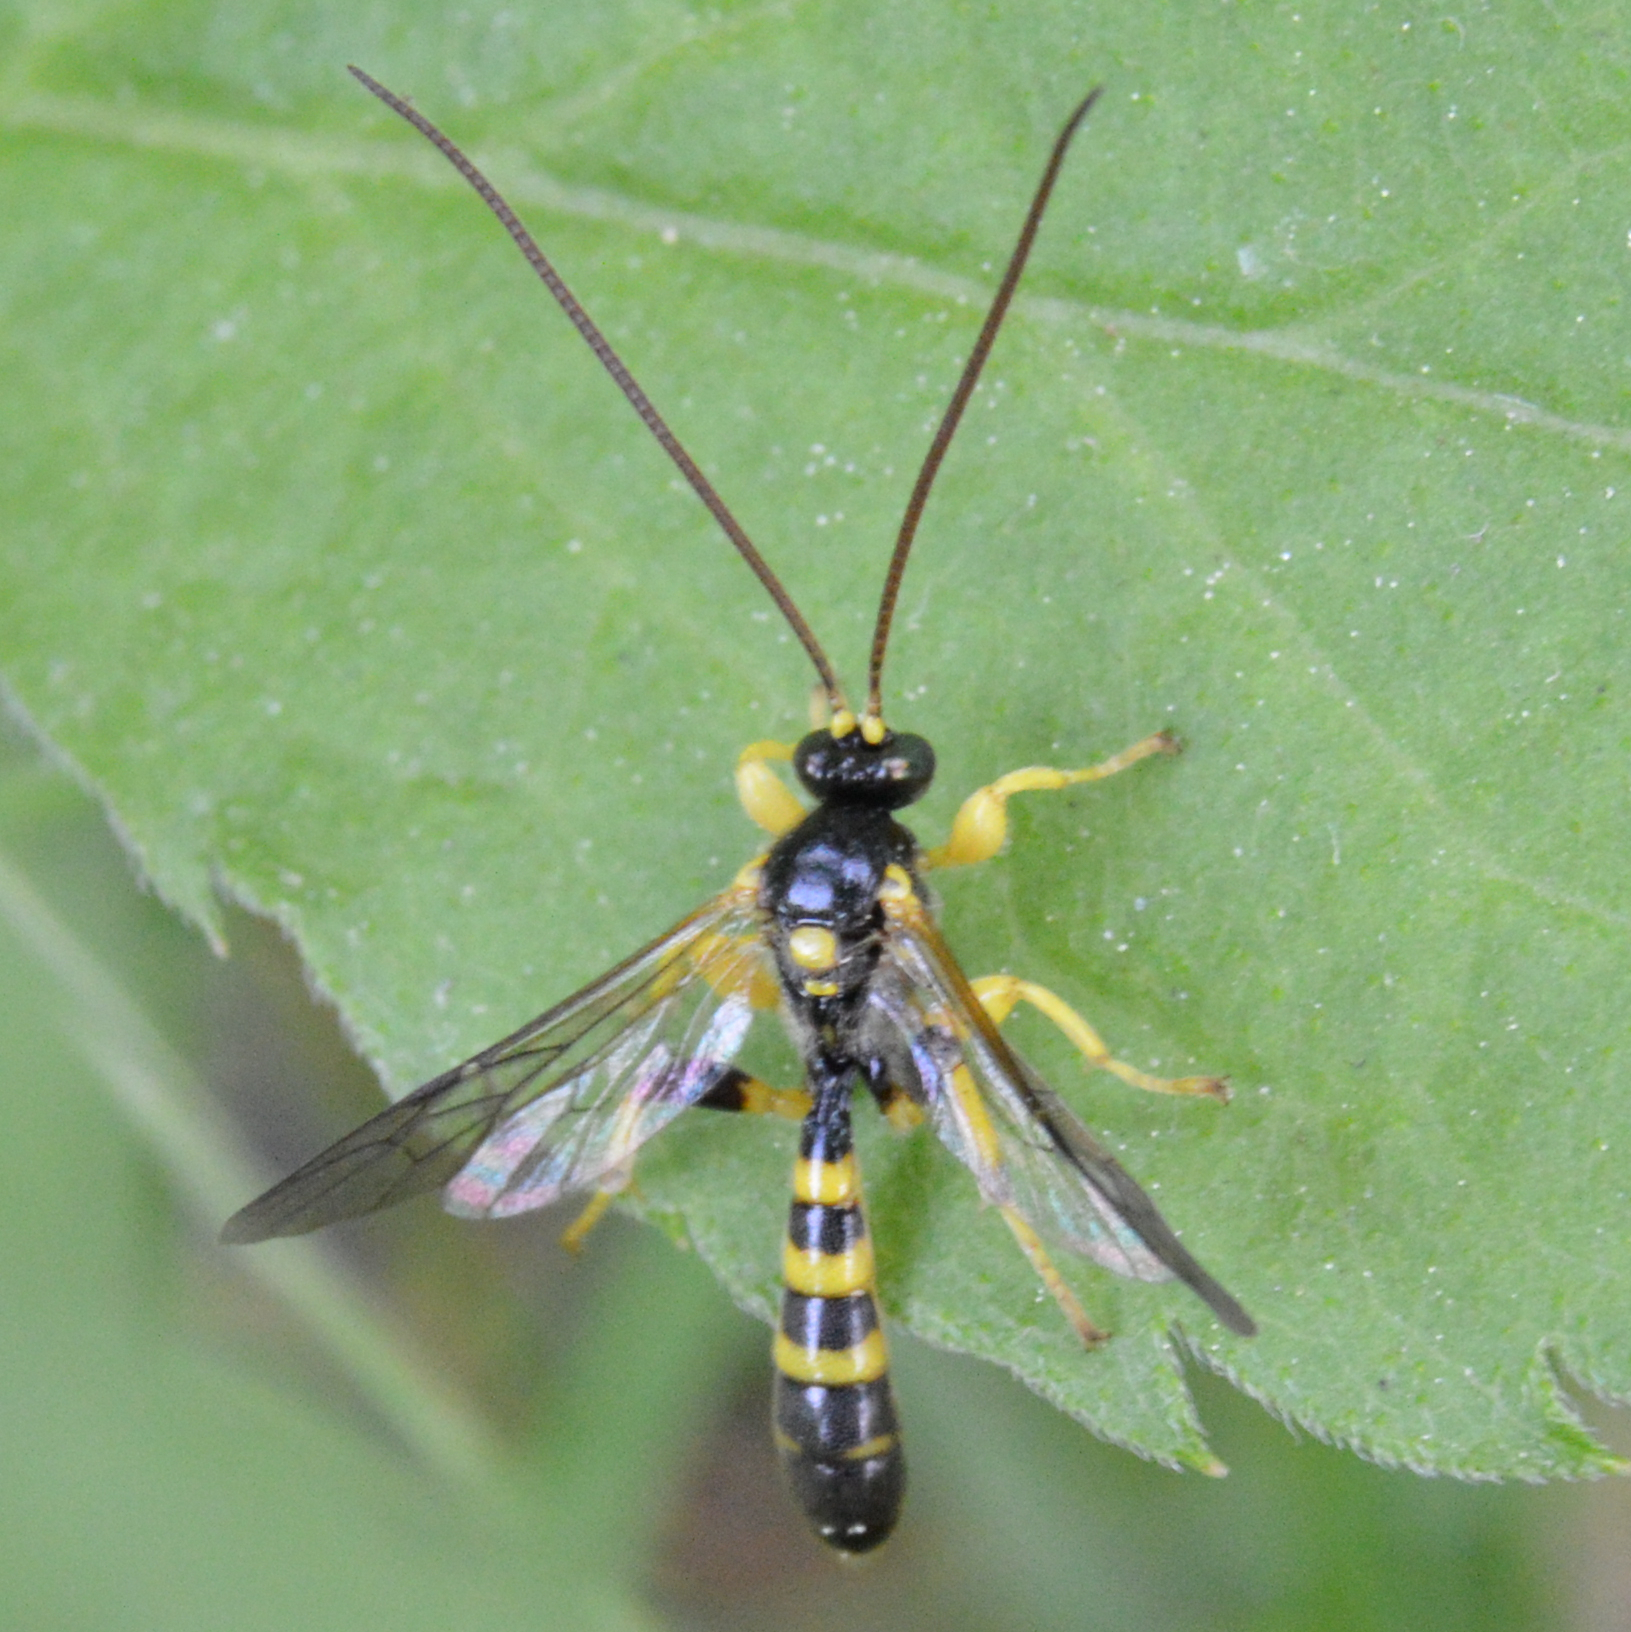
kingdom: Animalia
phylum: Arthropoda
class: Insecta
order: Hymenoptera
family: Ichneumonidae
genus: Colpotrochia
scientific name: Colpotrochia trifasciata
